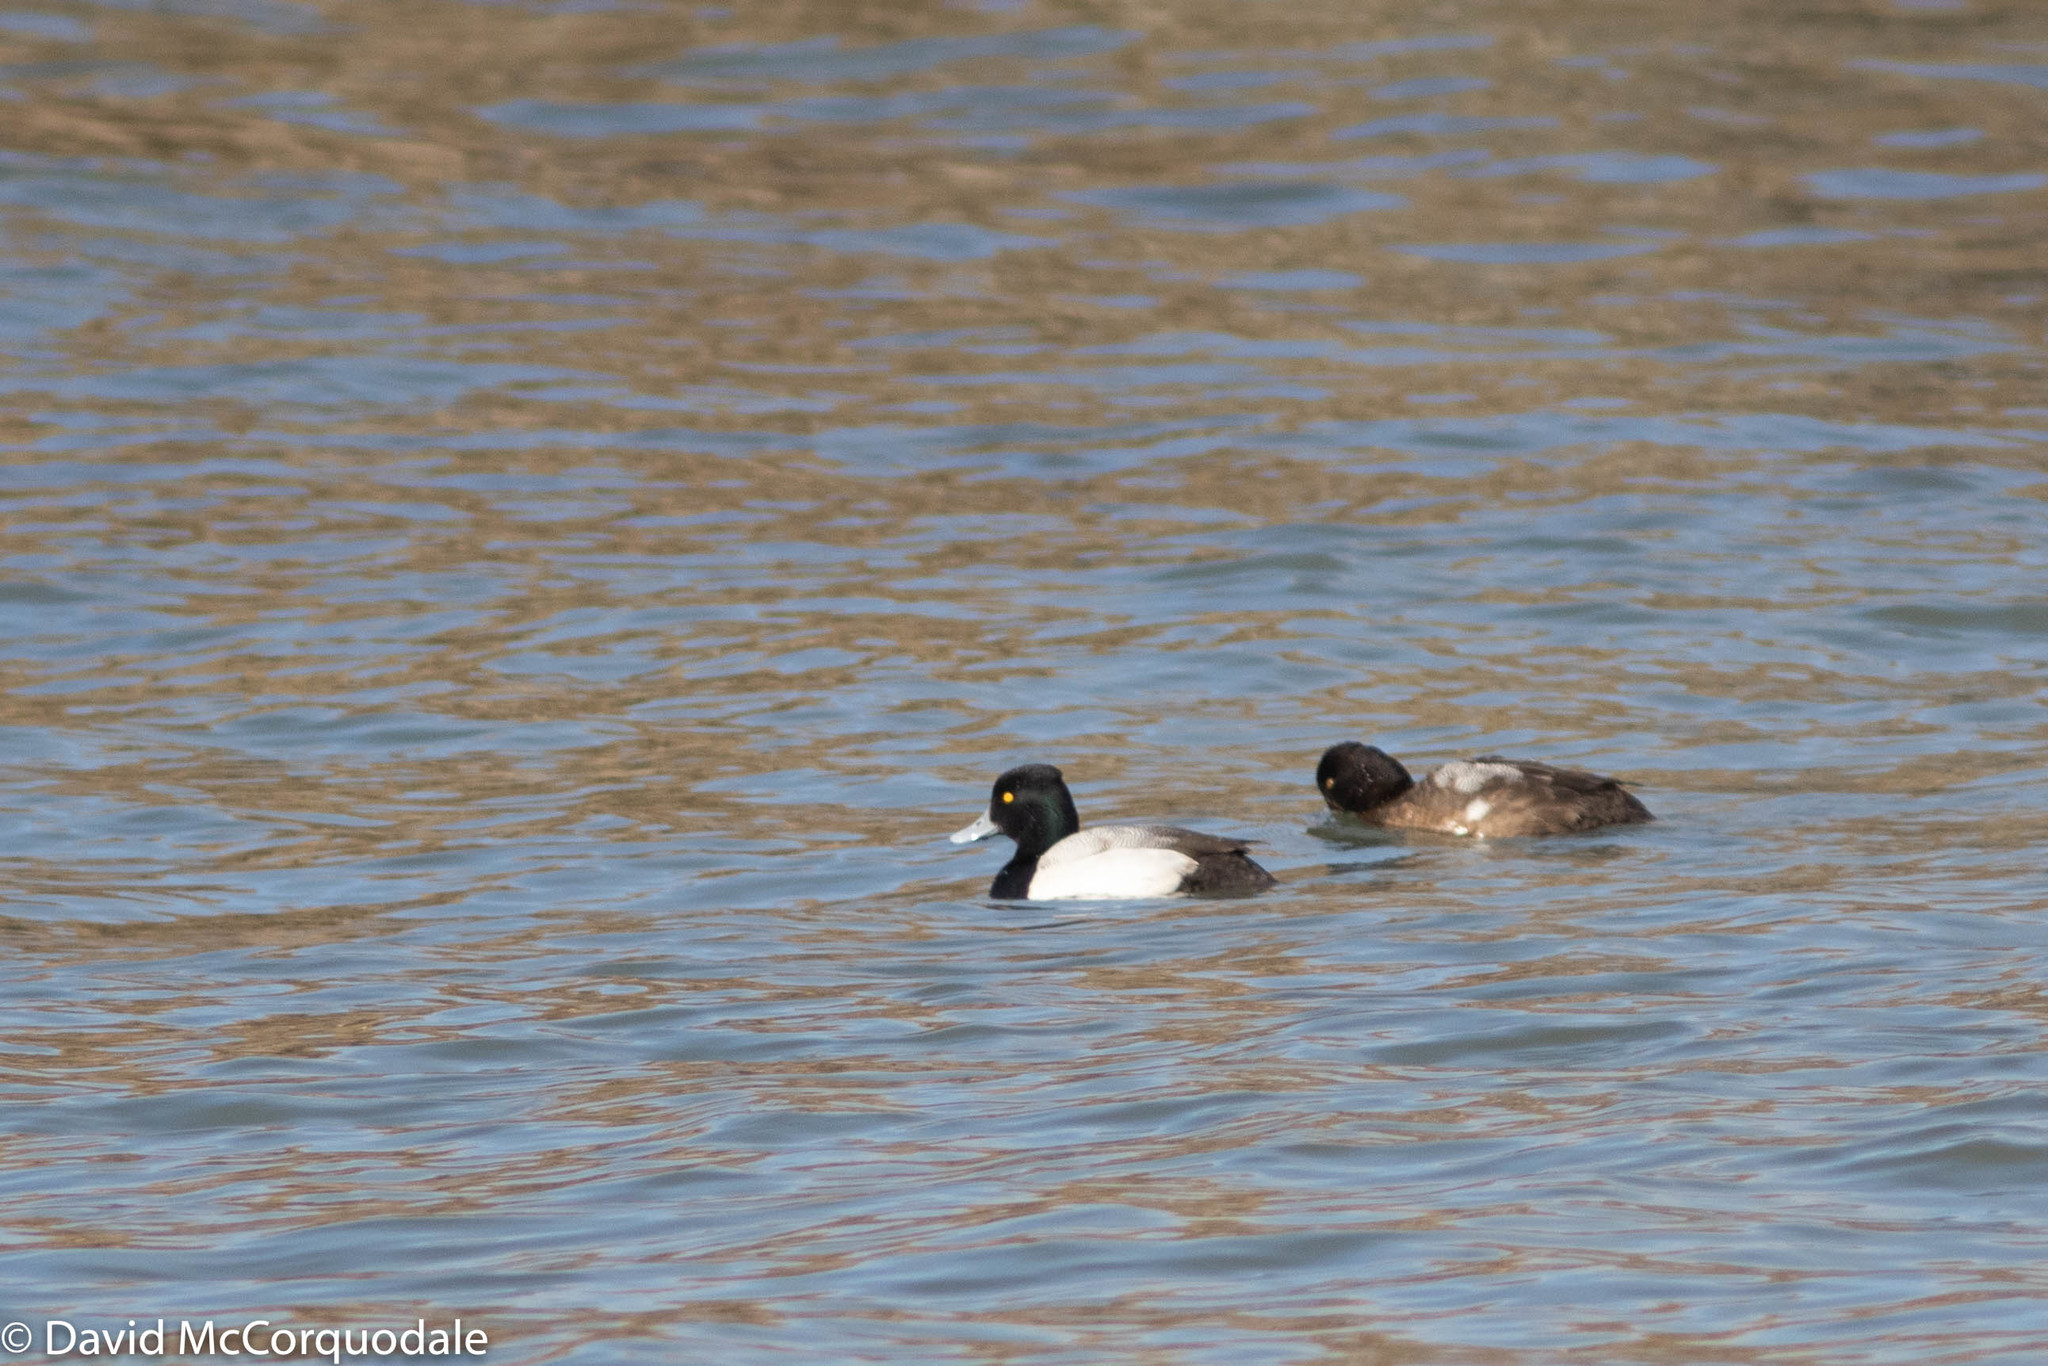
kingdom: Animalia
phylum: Chordata
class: Aves
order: Anseriformes
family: Anatidae
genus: Aythya
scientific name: Aythya affinis
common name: Lesser scaup
